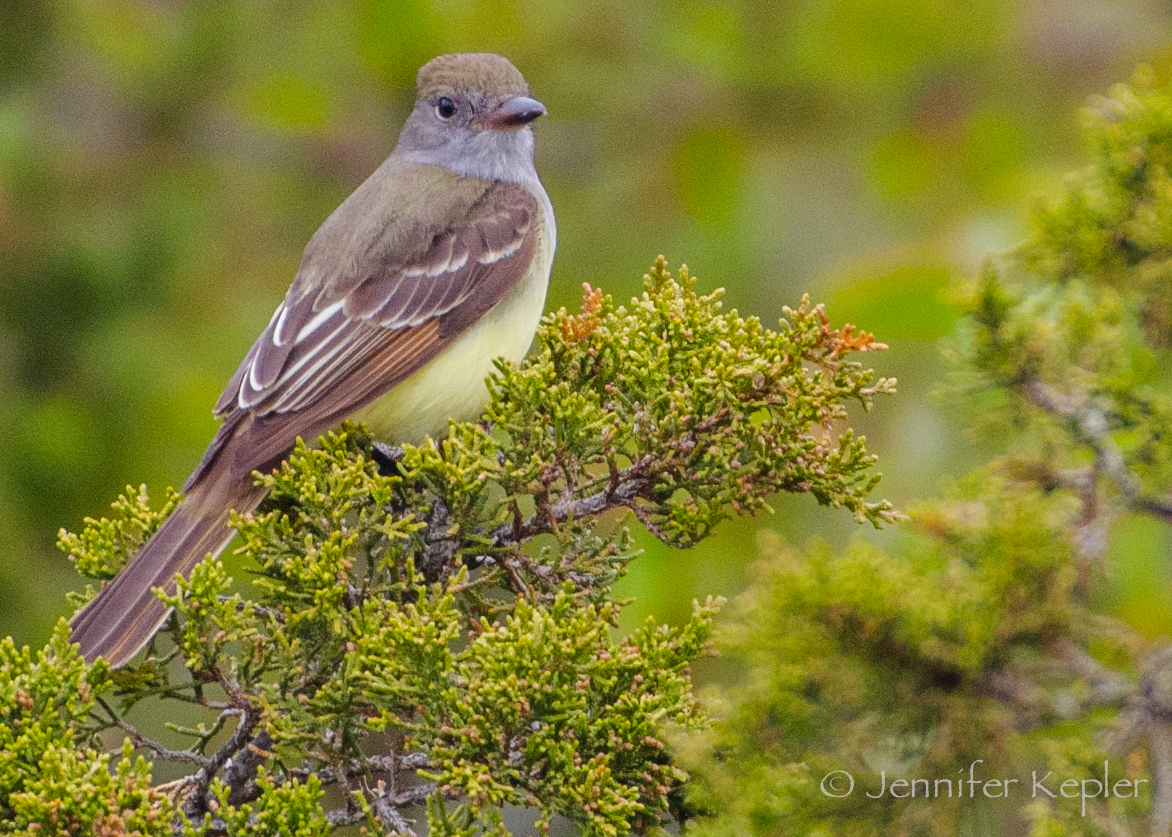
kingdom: Animalia
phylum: Chordata
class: Aves
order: Passeriformes
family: Tyrannidae
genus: Myiarchus
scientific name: Myiarchus crinitus
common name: Great crested flycatcher
